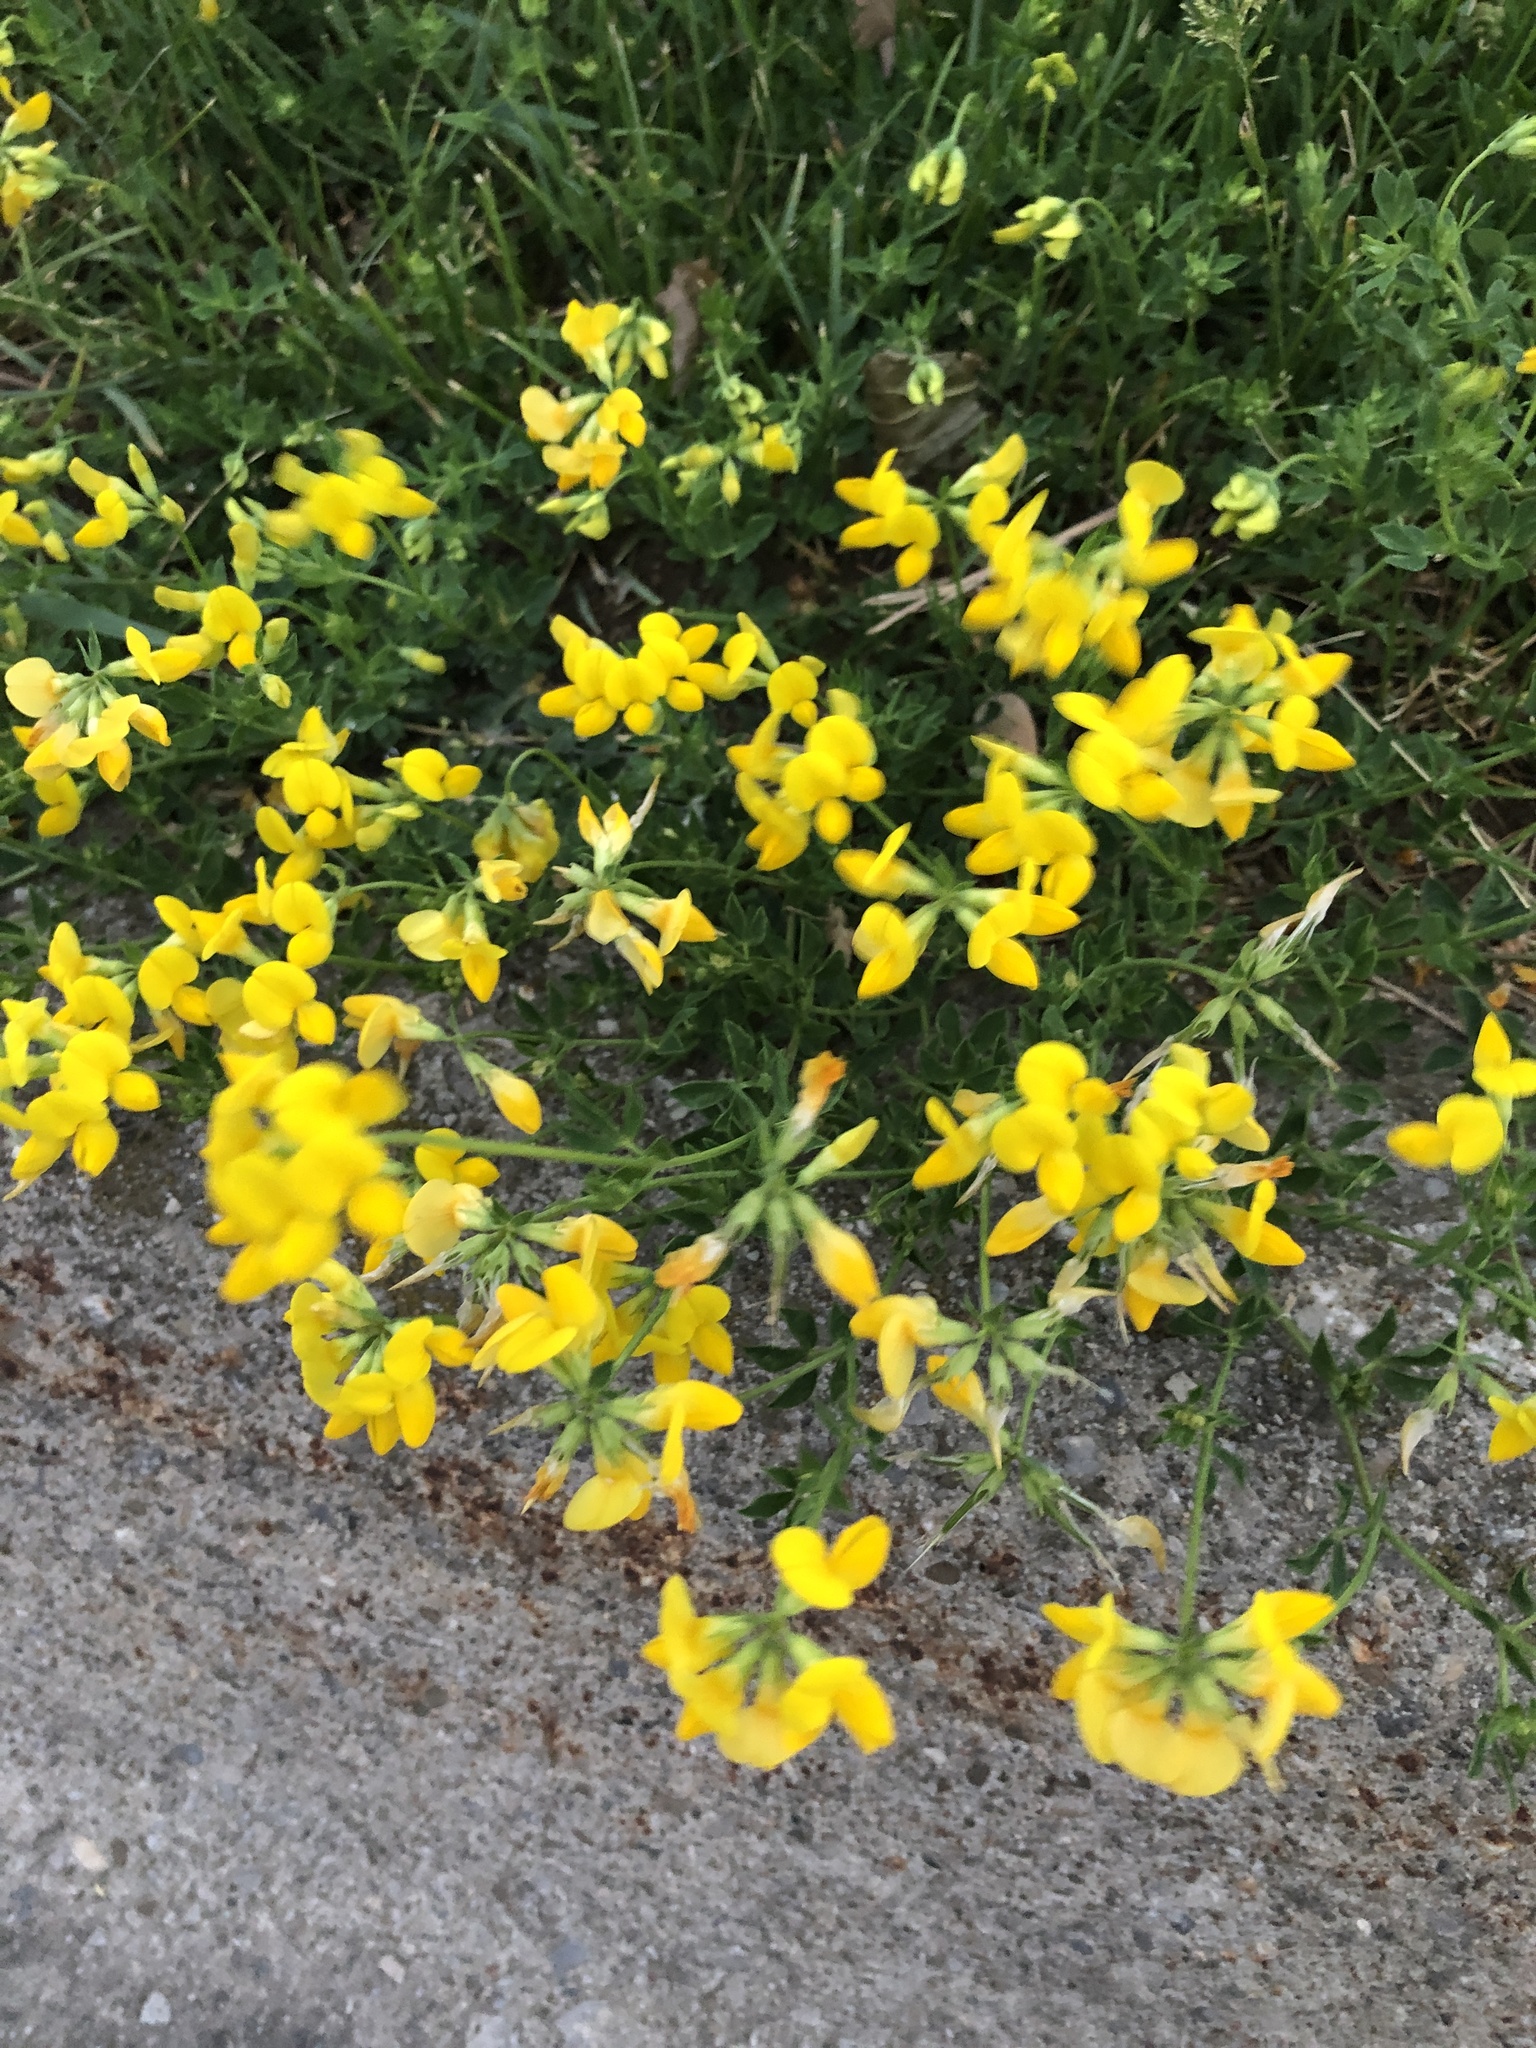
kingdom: Plantae
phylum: Tracheophyta
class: Magnoliopsida
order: Fabales
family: Fabaceae
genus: Lotus
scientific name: Lotus corniculatus
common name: Common bird's-foot-trefoil
